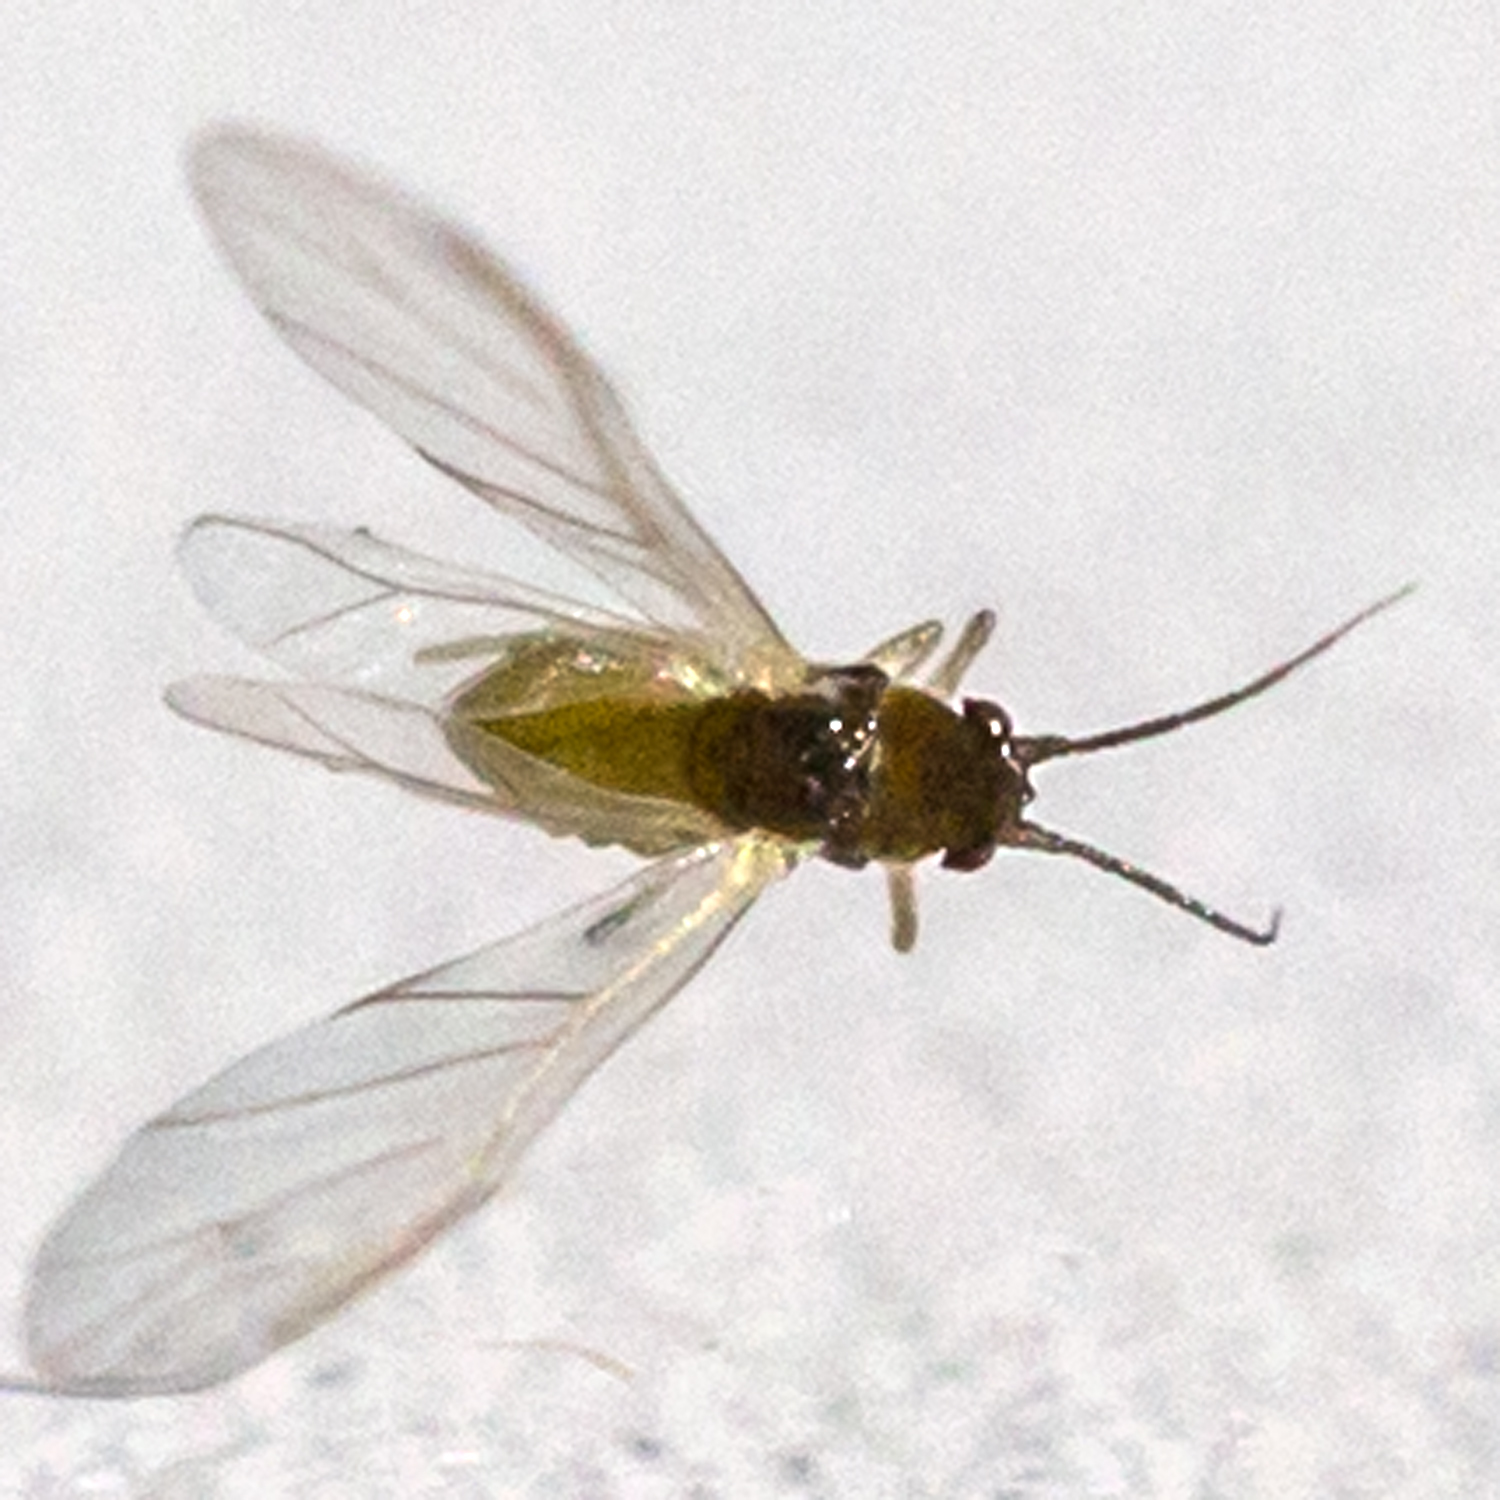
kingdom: Animalia
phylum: Arthropoda
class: Insecta
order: Hemiptera
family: Aphididae
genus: Vesiculaphis
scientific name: Vesiculaphis caricis
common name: Aphid
